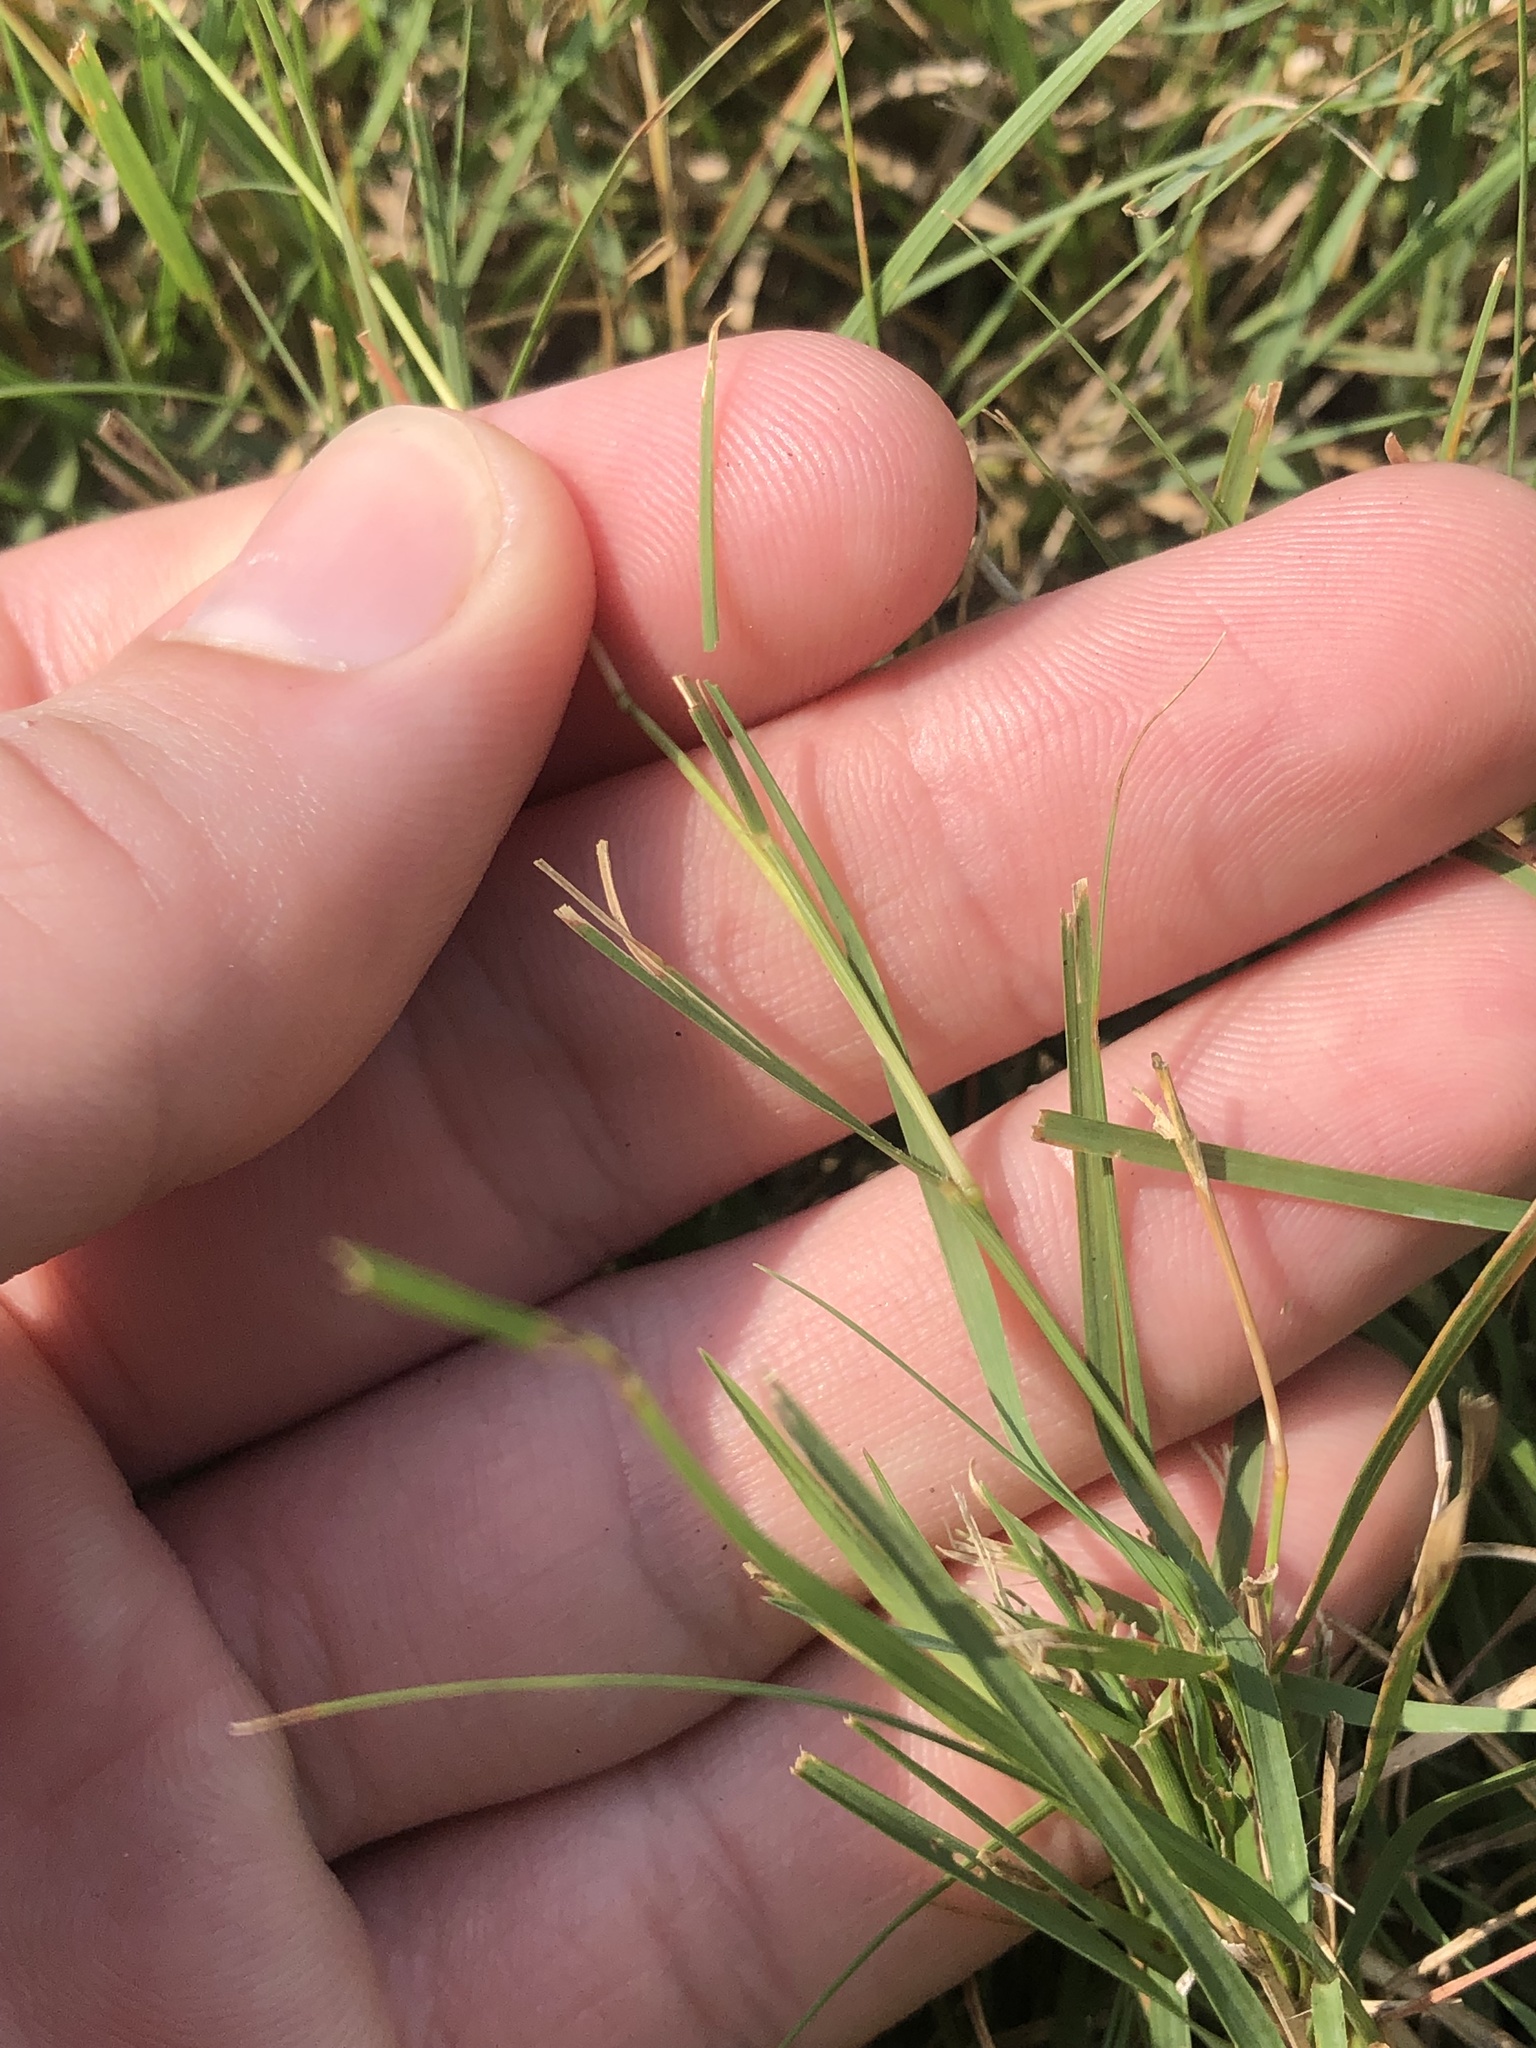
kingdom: Plantae
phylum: Tracheophyta
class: Liliopsida
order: Poales
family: Poaceae
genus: Bouteloua
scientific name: Bouteloua dactyloides
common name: Buffalo grass
